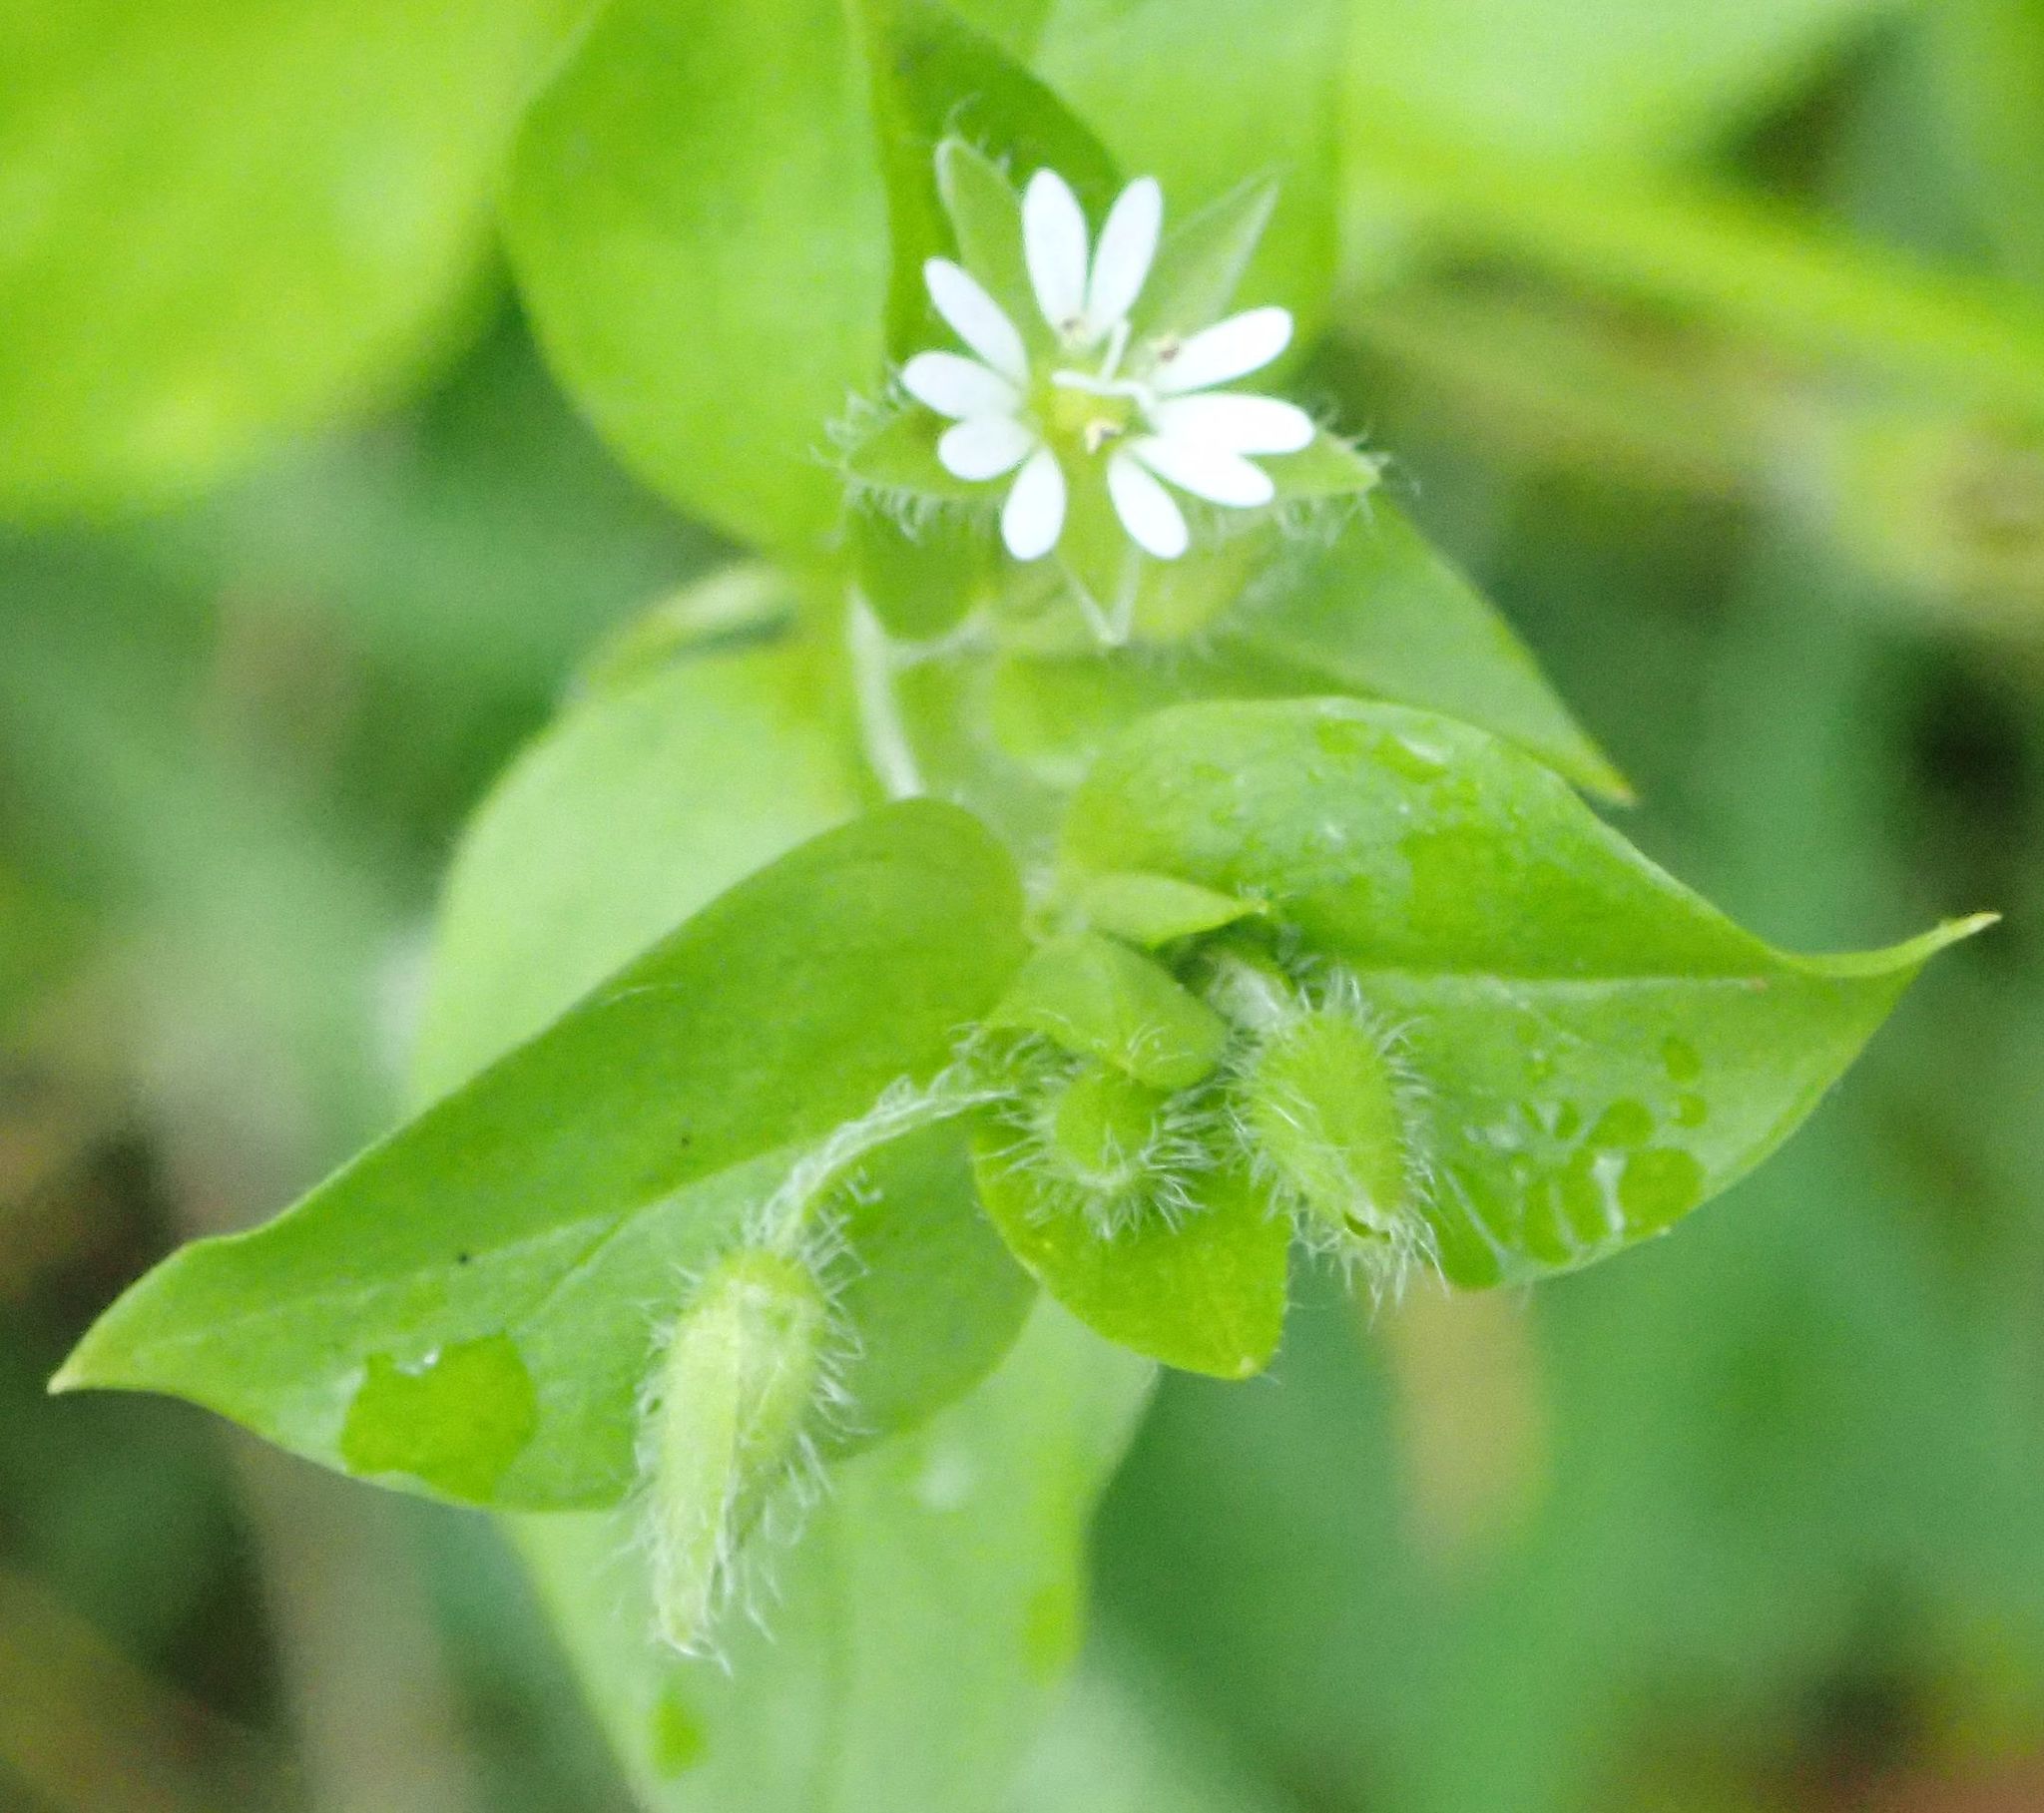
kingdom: Plantae
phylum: Tracheophyta
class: Magnoliopsida
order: Caryophyllales
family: Caryophyllaceae
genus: Stellaria
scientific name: Stellaria media
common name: Common chickweed
